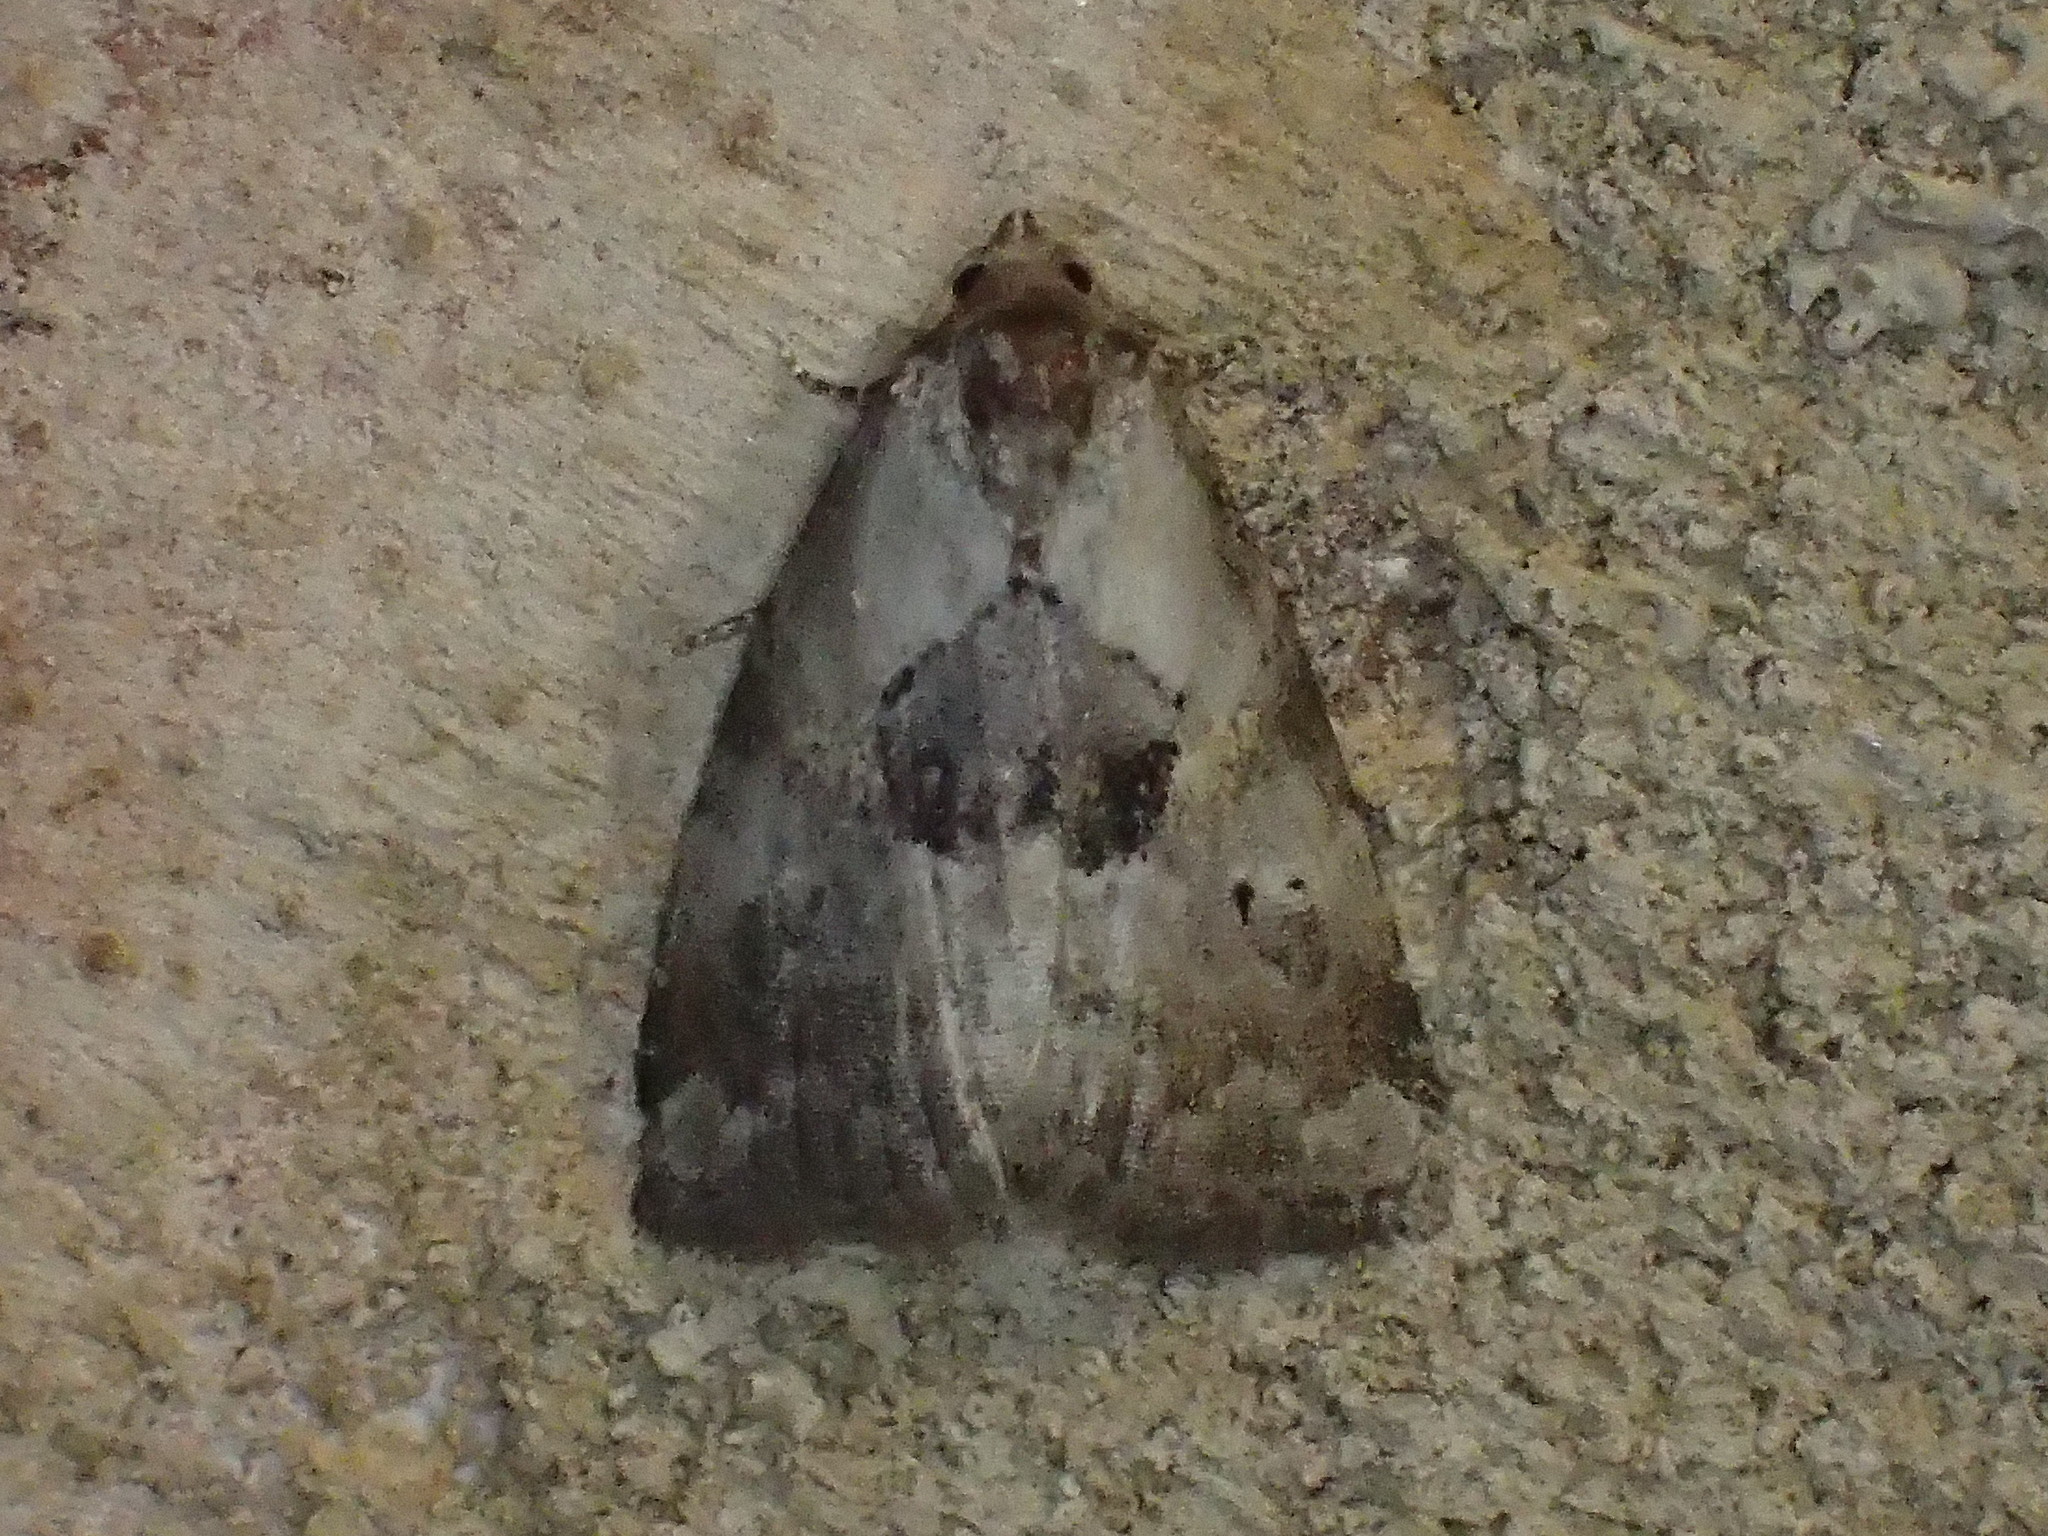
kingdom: Animalia
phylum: Arthropoda
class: Insecta
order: Lepidoptera
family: Erebidae
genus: Hyperstrotia
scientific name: Hyperstrotia secta
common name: Black-patched graylet
